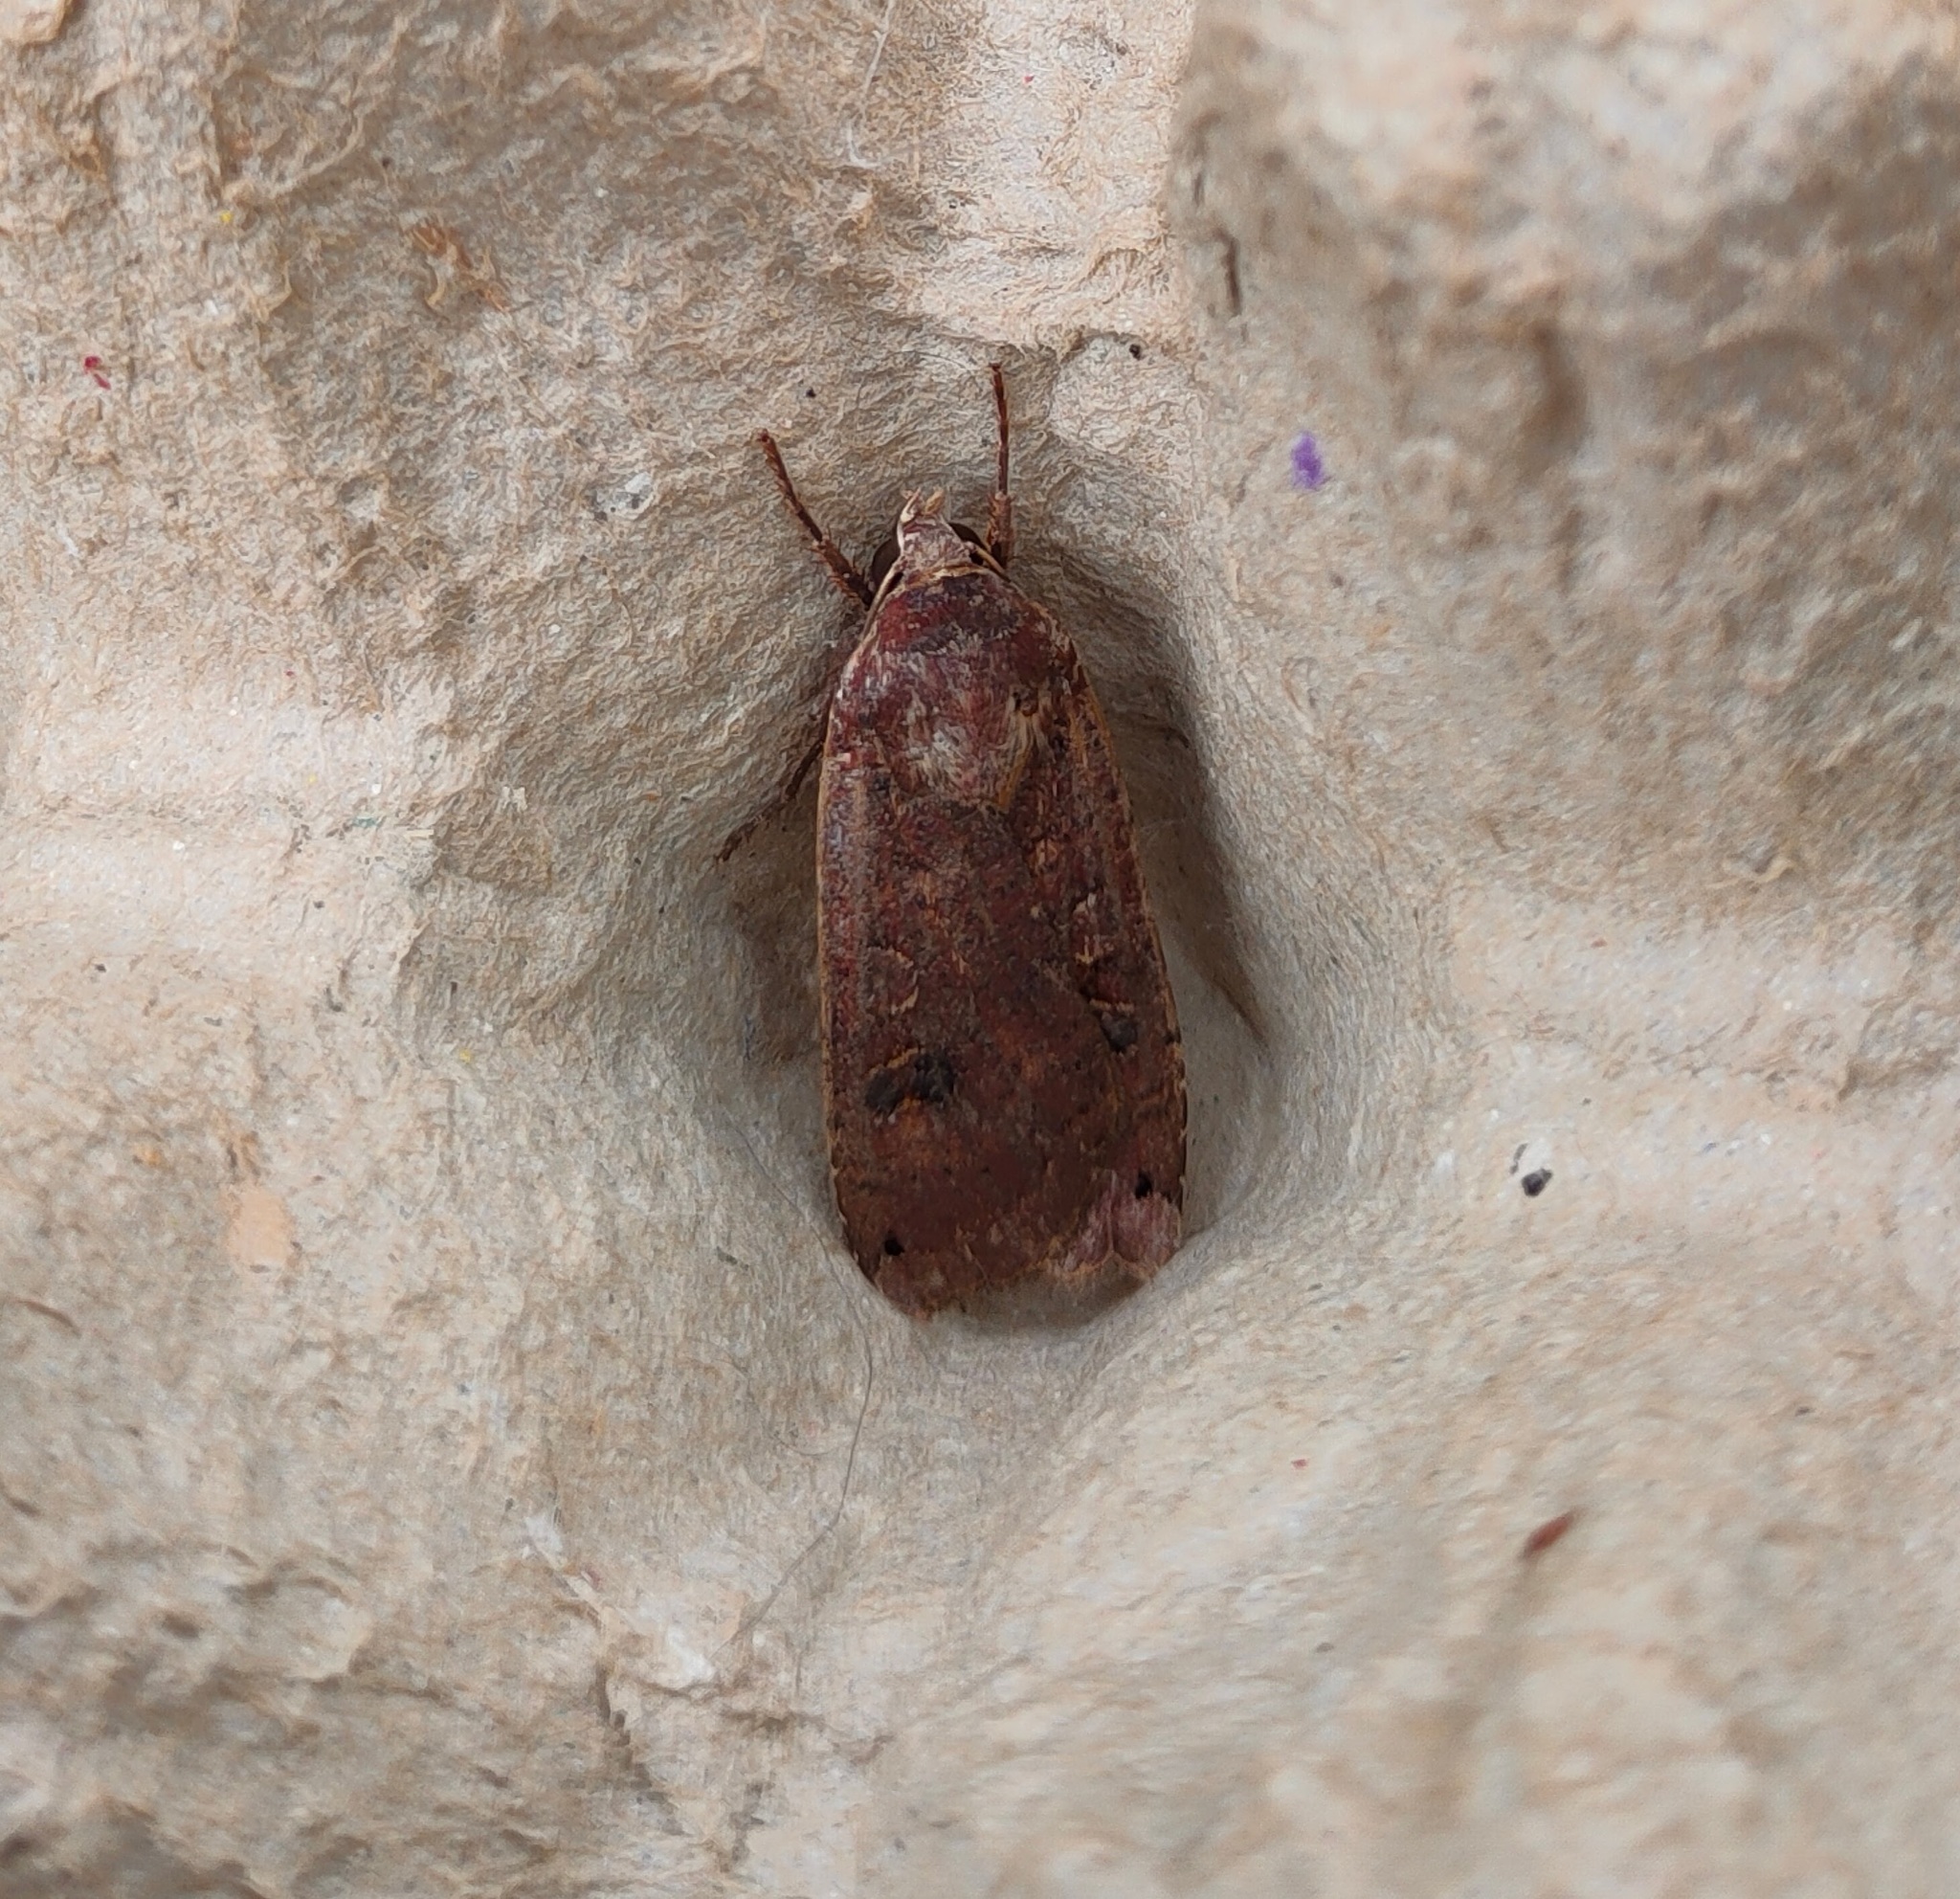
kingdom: Animalia
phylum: Arthropoda
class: Insecta
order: Lepidoptera
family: Noctuidae
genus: Noctua
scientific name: Noctua pronuba
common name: Large yellow underwing
